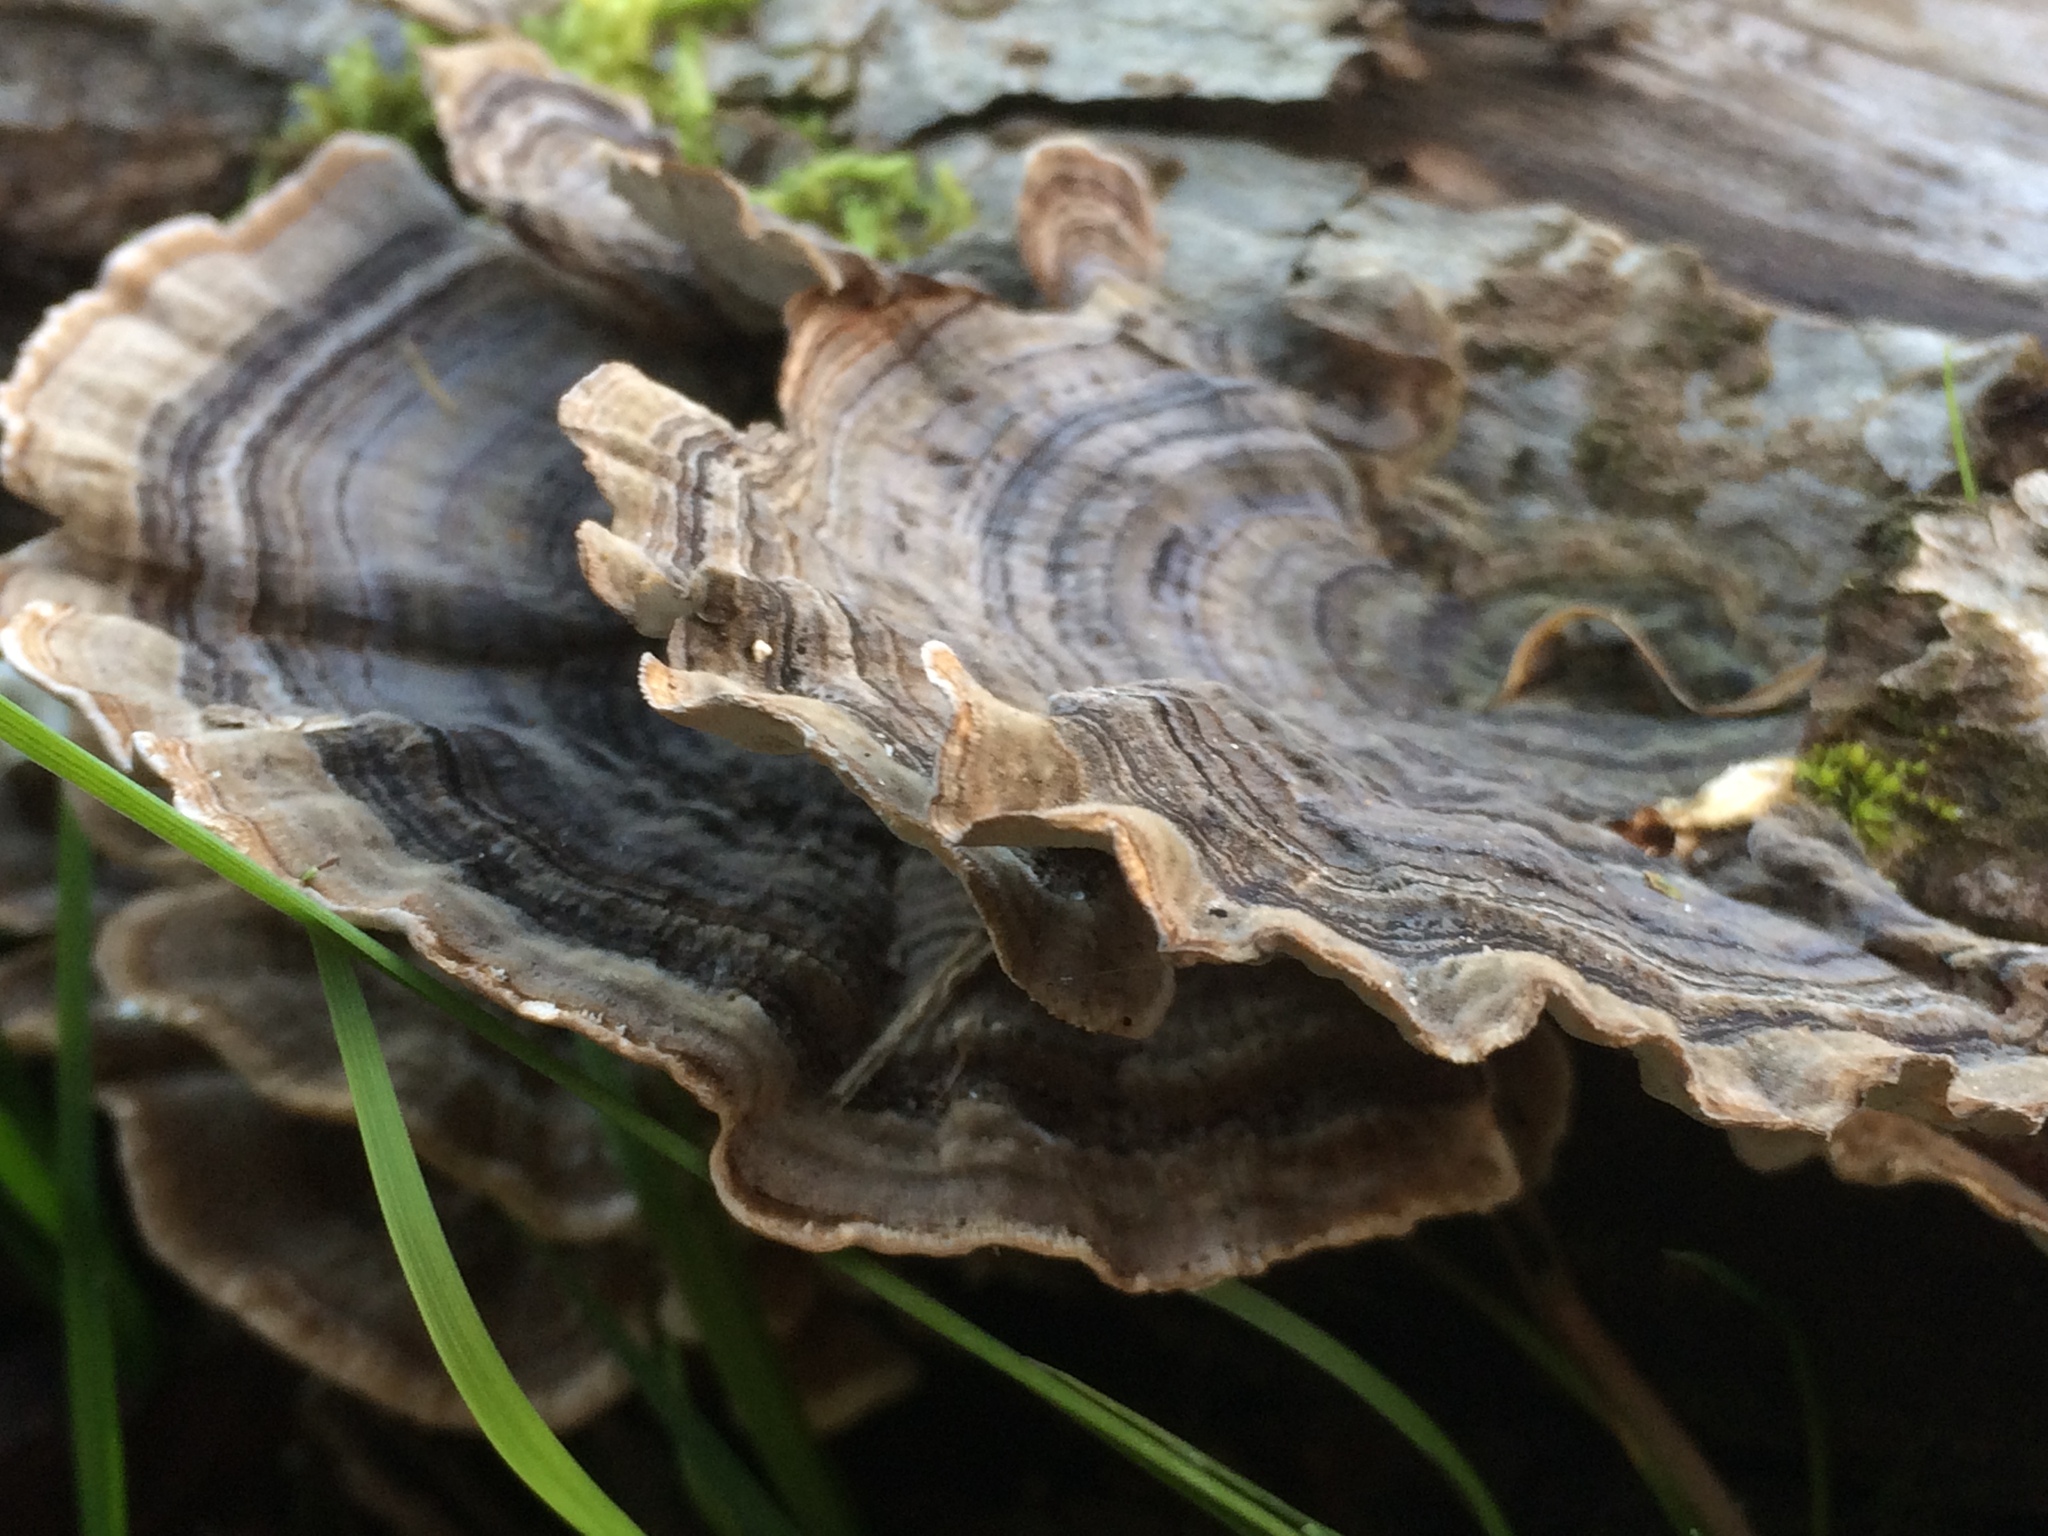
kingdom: Fungi
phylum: Basidiomycota
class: Agaricomycetes
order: Polyporales
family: Polyporaceae
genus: Trametes
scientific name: Trametes versicolor
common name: Turkeytail
